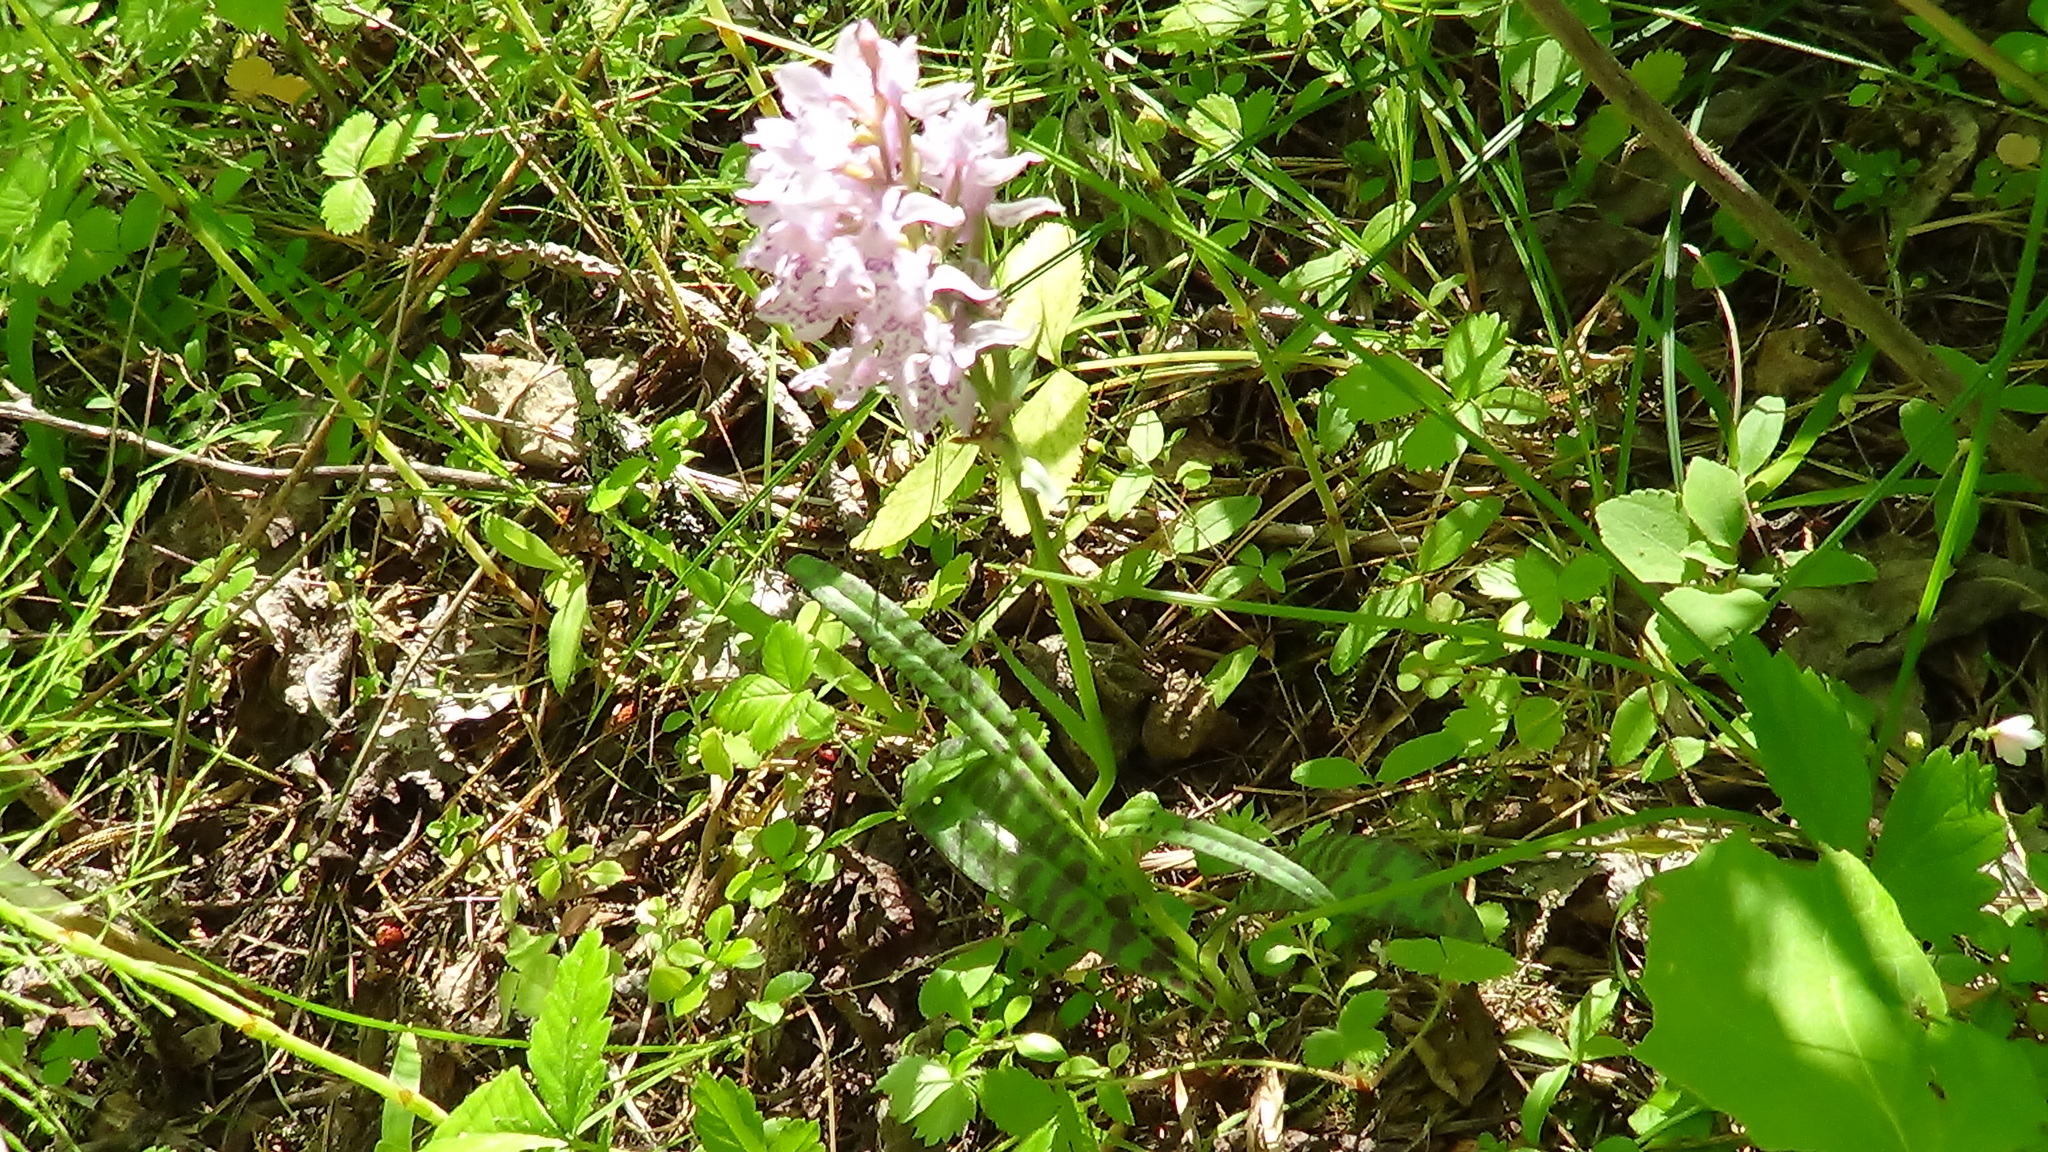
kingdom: Plantae
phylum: Tracheophyta
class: Liliopsida
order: Asparagales
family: Orchidaceae
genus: Dactylorhiza
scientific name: Dactylorhiza maculata
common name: Heath spotted-orchid
